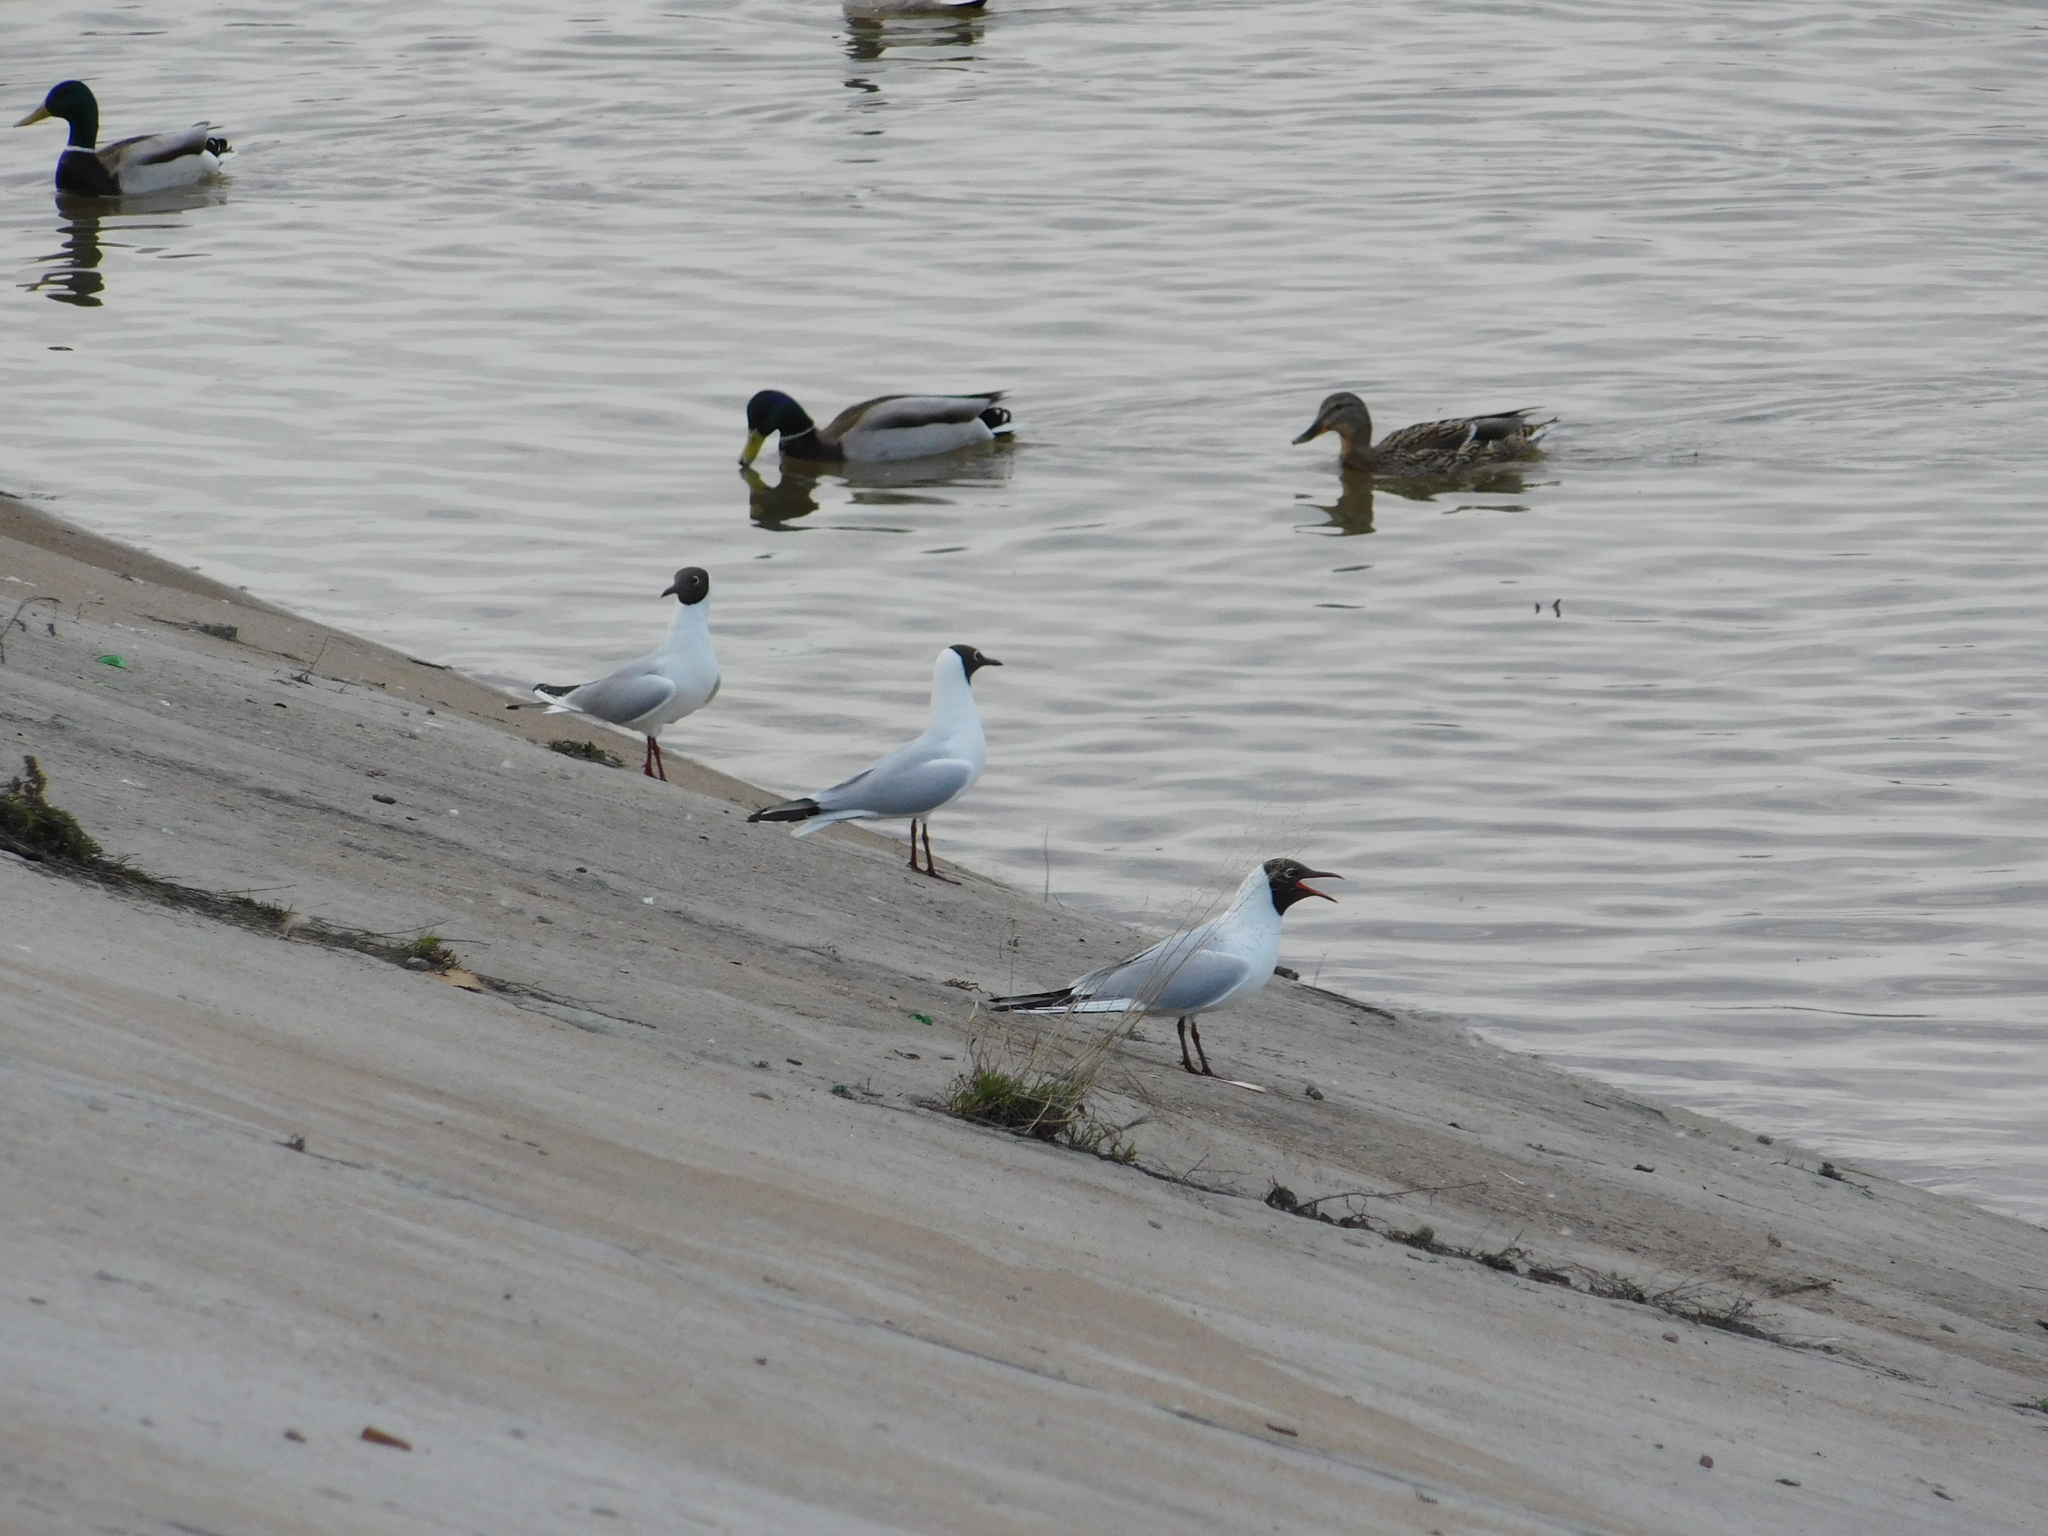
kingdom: Animalia
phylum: Chordata
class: Aves
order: Charadriiformes
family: Laridae
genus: Chroicocephalus
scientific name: Chroicocephalus ridibundus
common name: Black-headed gull
